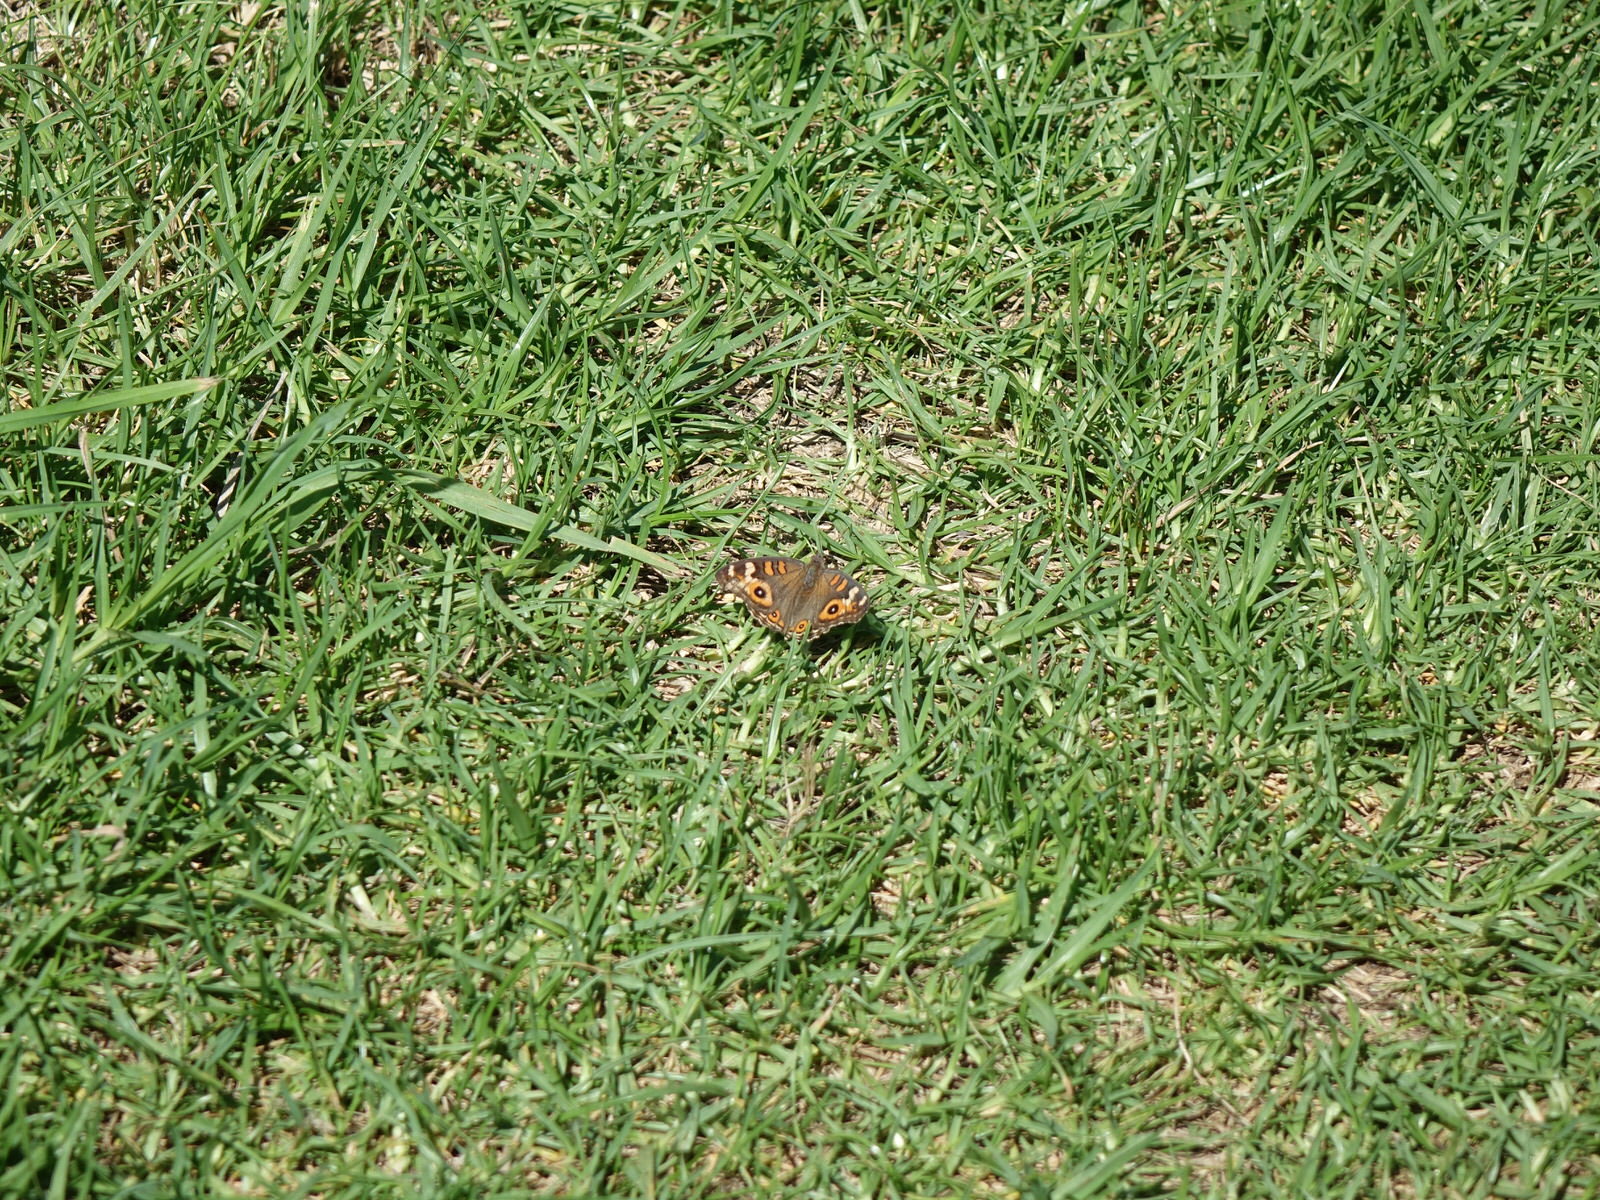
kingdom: Animalia
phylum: Arthropoda
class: Insecta
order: Lepidoptera
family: Nymphalidae
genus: Junonia
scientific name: Junonia villida
